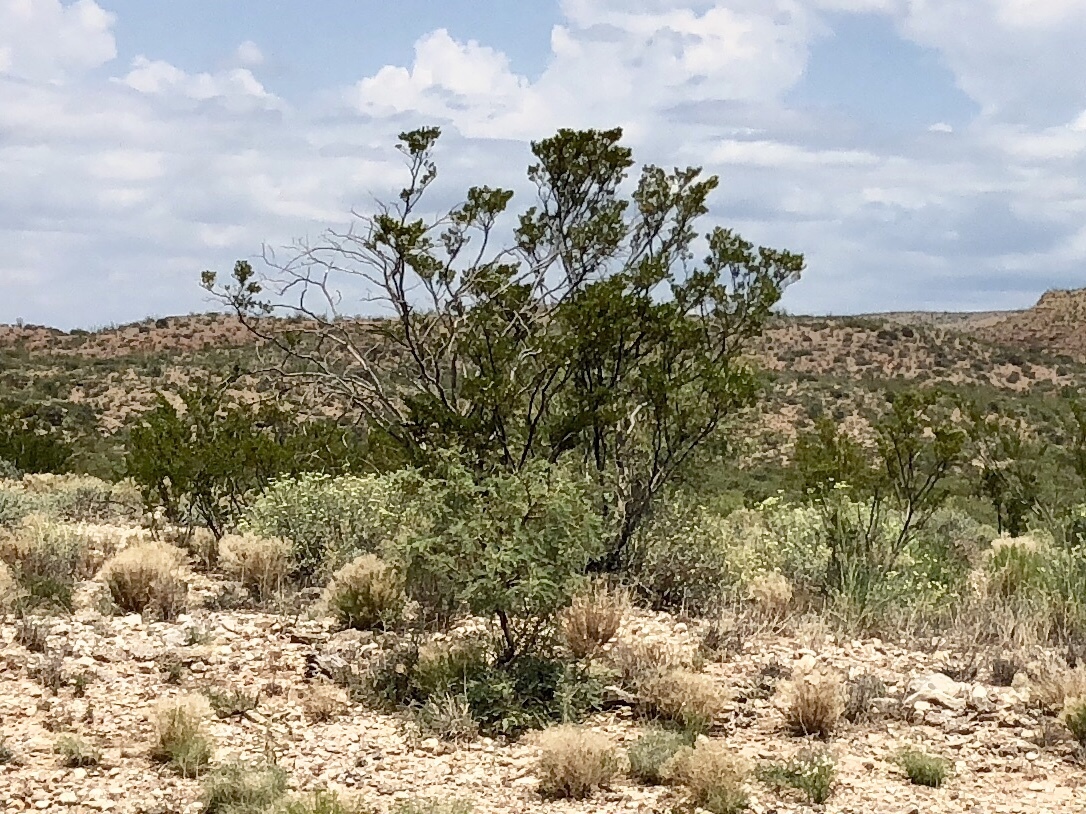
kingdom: Plantae
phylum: Tracheophyta
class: Magnoliopsida
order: Zygophyllales
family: Zygophyllaceae
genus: Larrea
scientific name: Larrea tridentata
